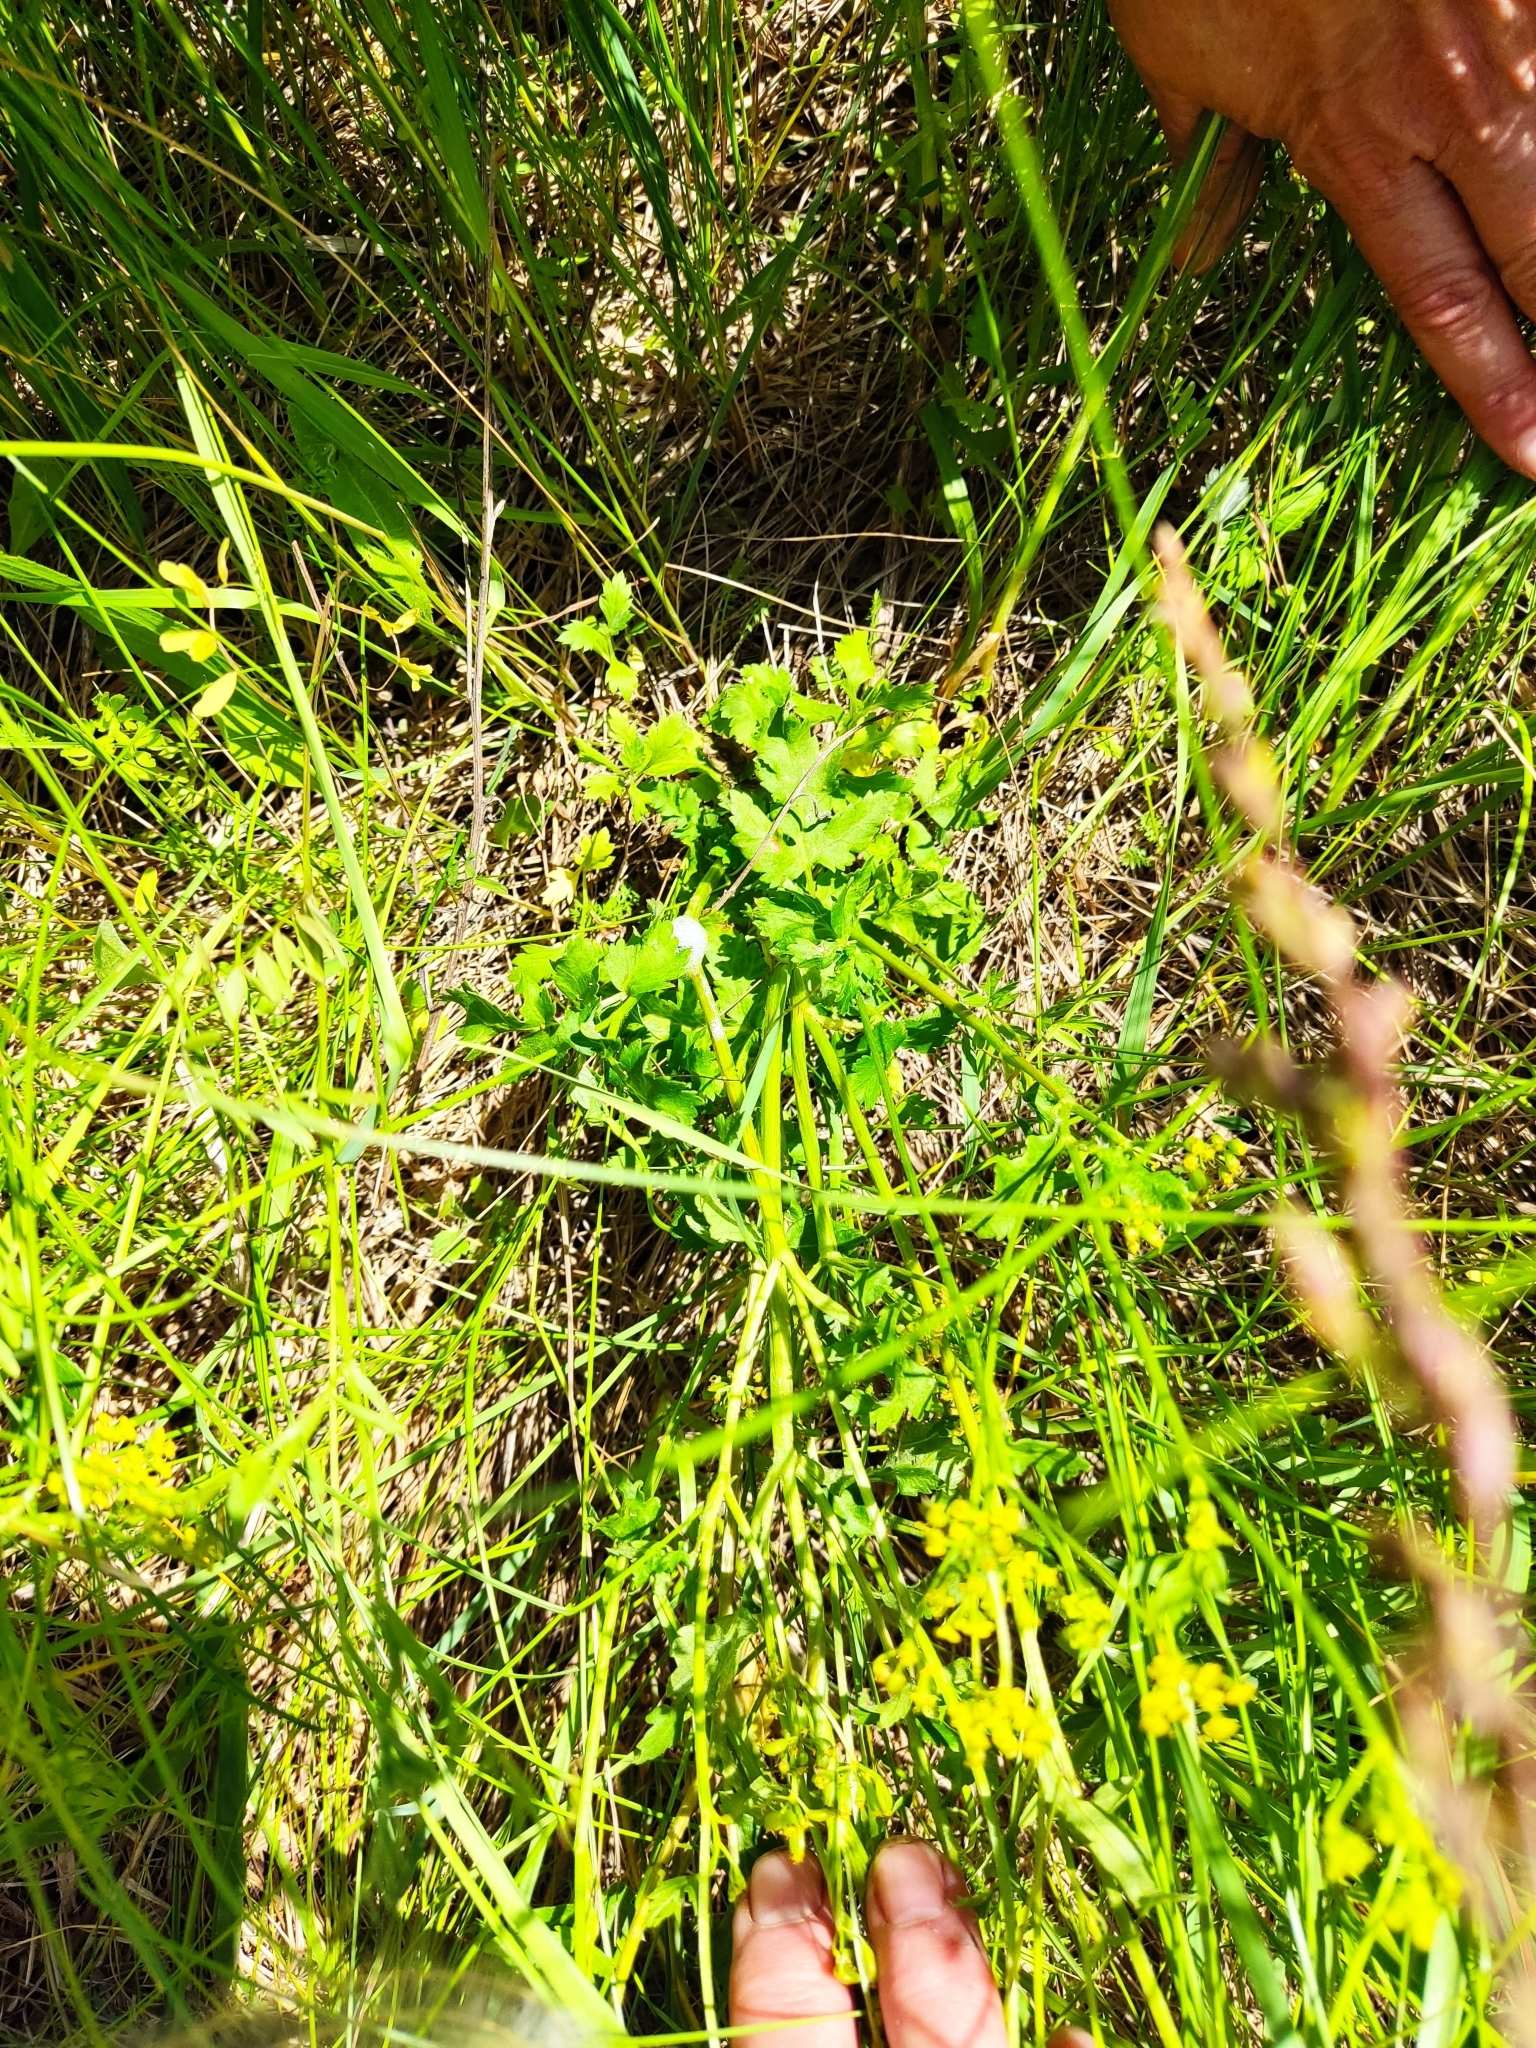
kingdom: Plantae
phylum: Tracheophyta
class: Magnoliopsida
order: Apiales
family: Apiaceae
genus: Pastinaca
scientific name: Pastinaca sativa
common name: Wild parsnip
